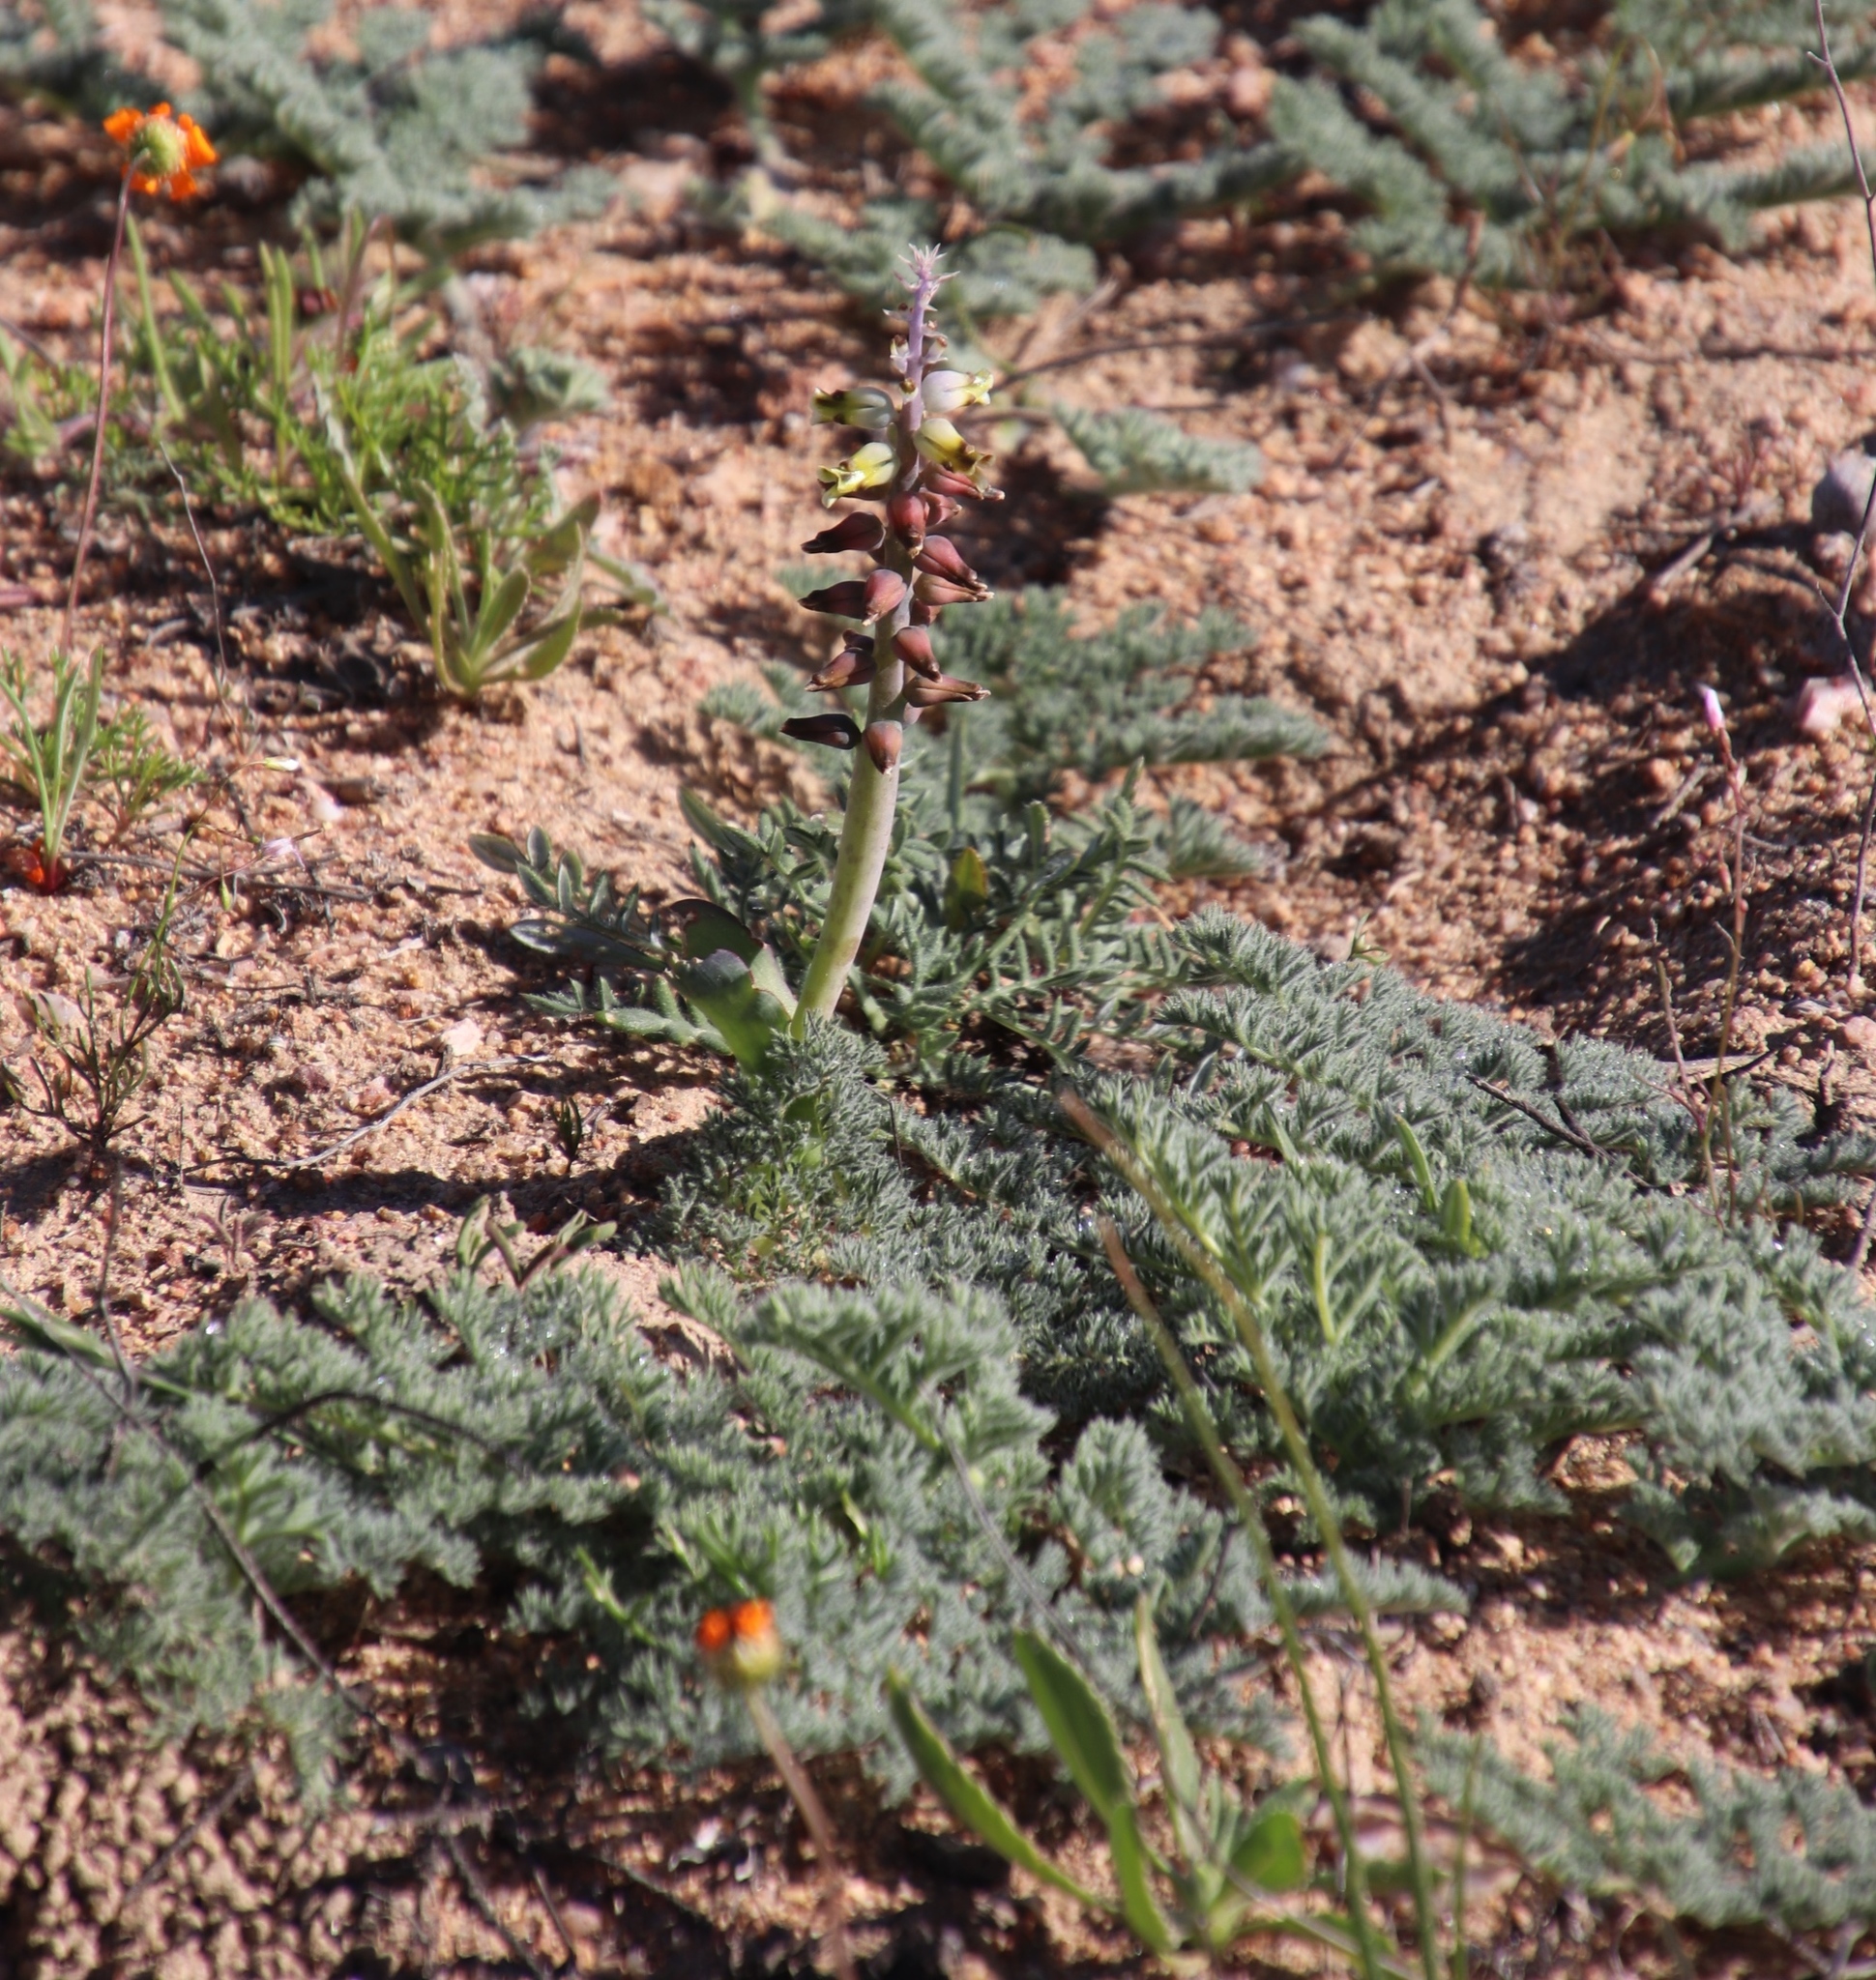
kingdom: Plantae
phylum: Tracheophyta
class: Liliopsida
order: Asparagales
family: Asparagaceae
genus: Lachenalia
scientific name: Lachenalia mutabilis
